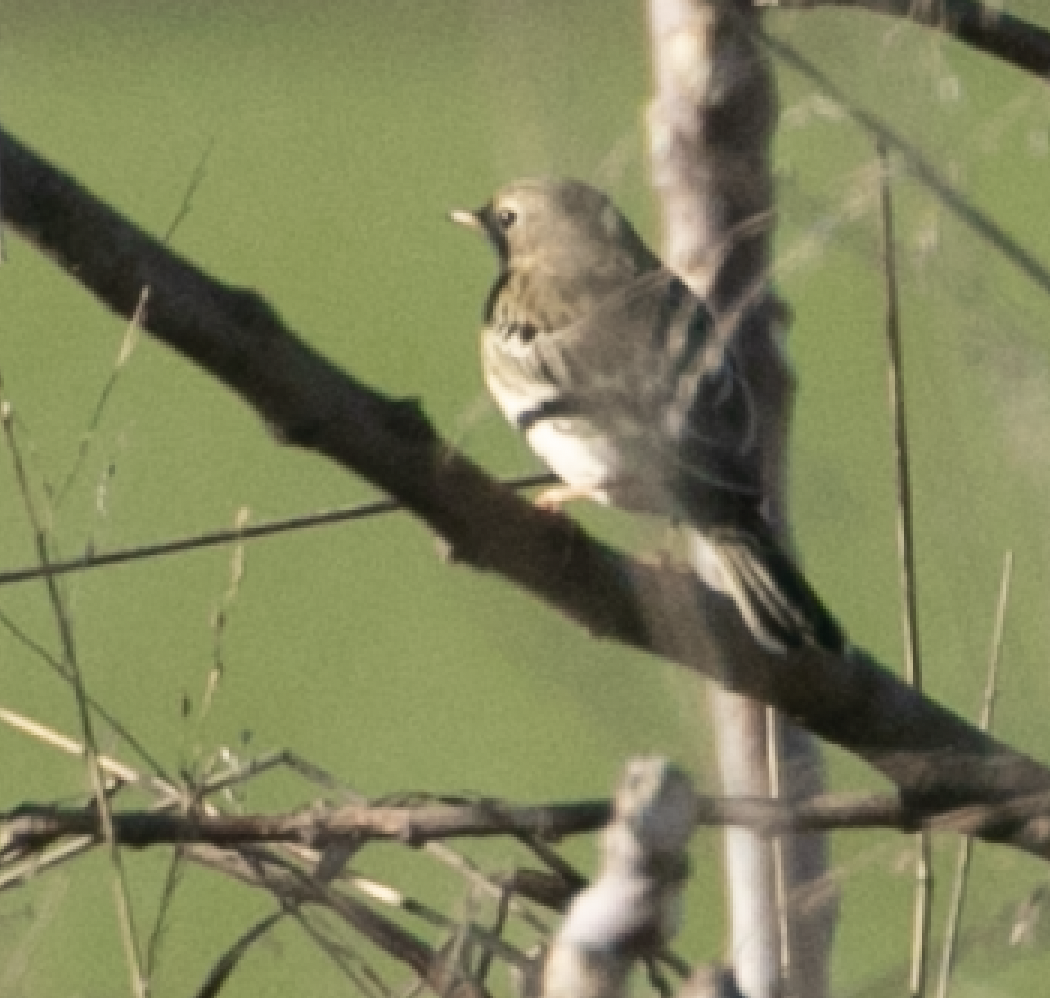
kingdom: Animalia
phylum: Chordata
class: Aves
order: Passeriformes
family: Motacillidae
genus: Anthus
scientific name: Anthus pratensis
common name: Meadow pipit
